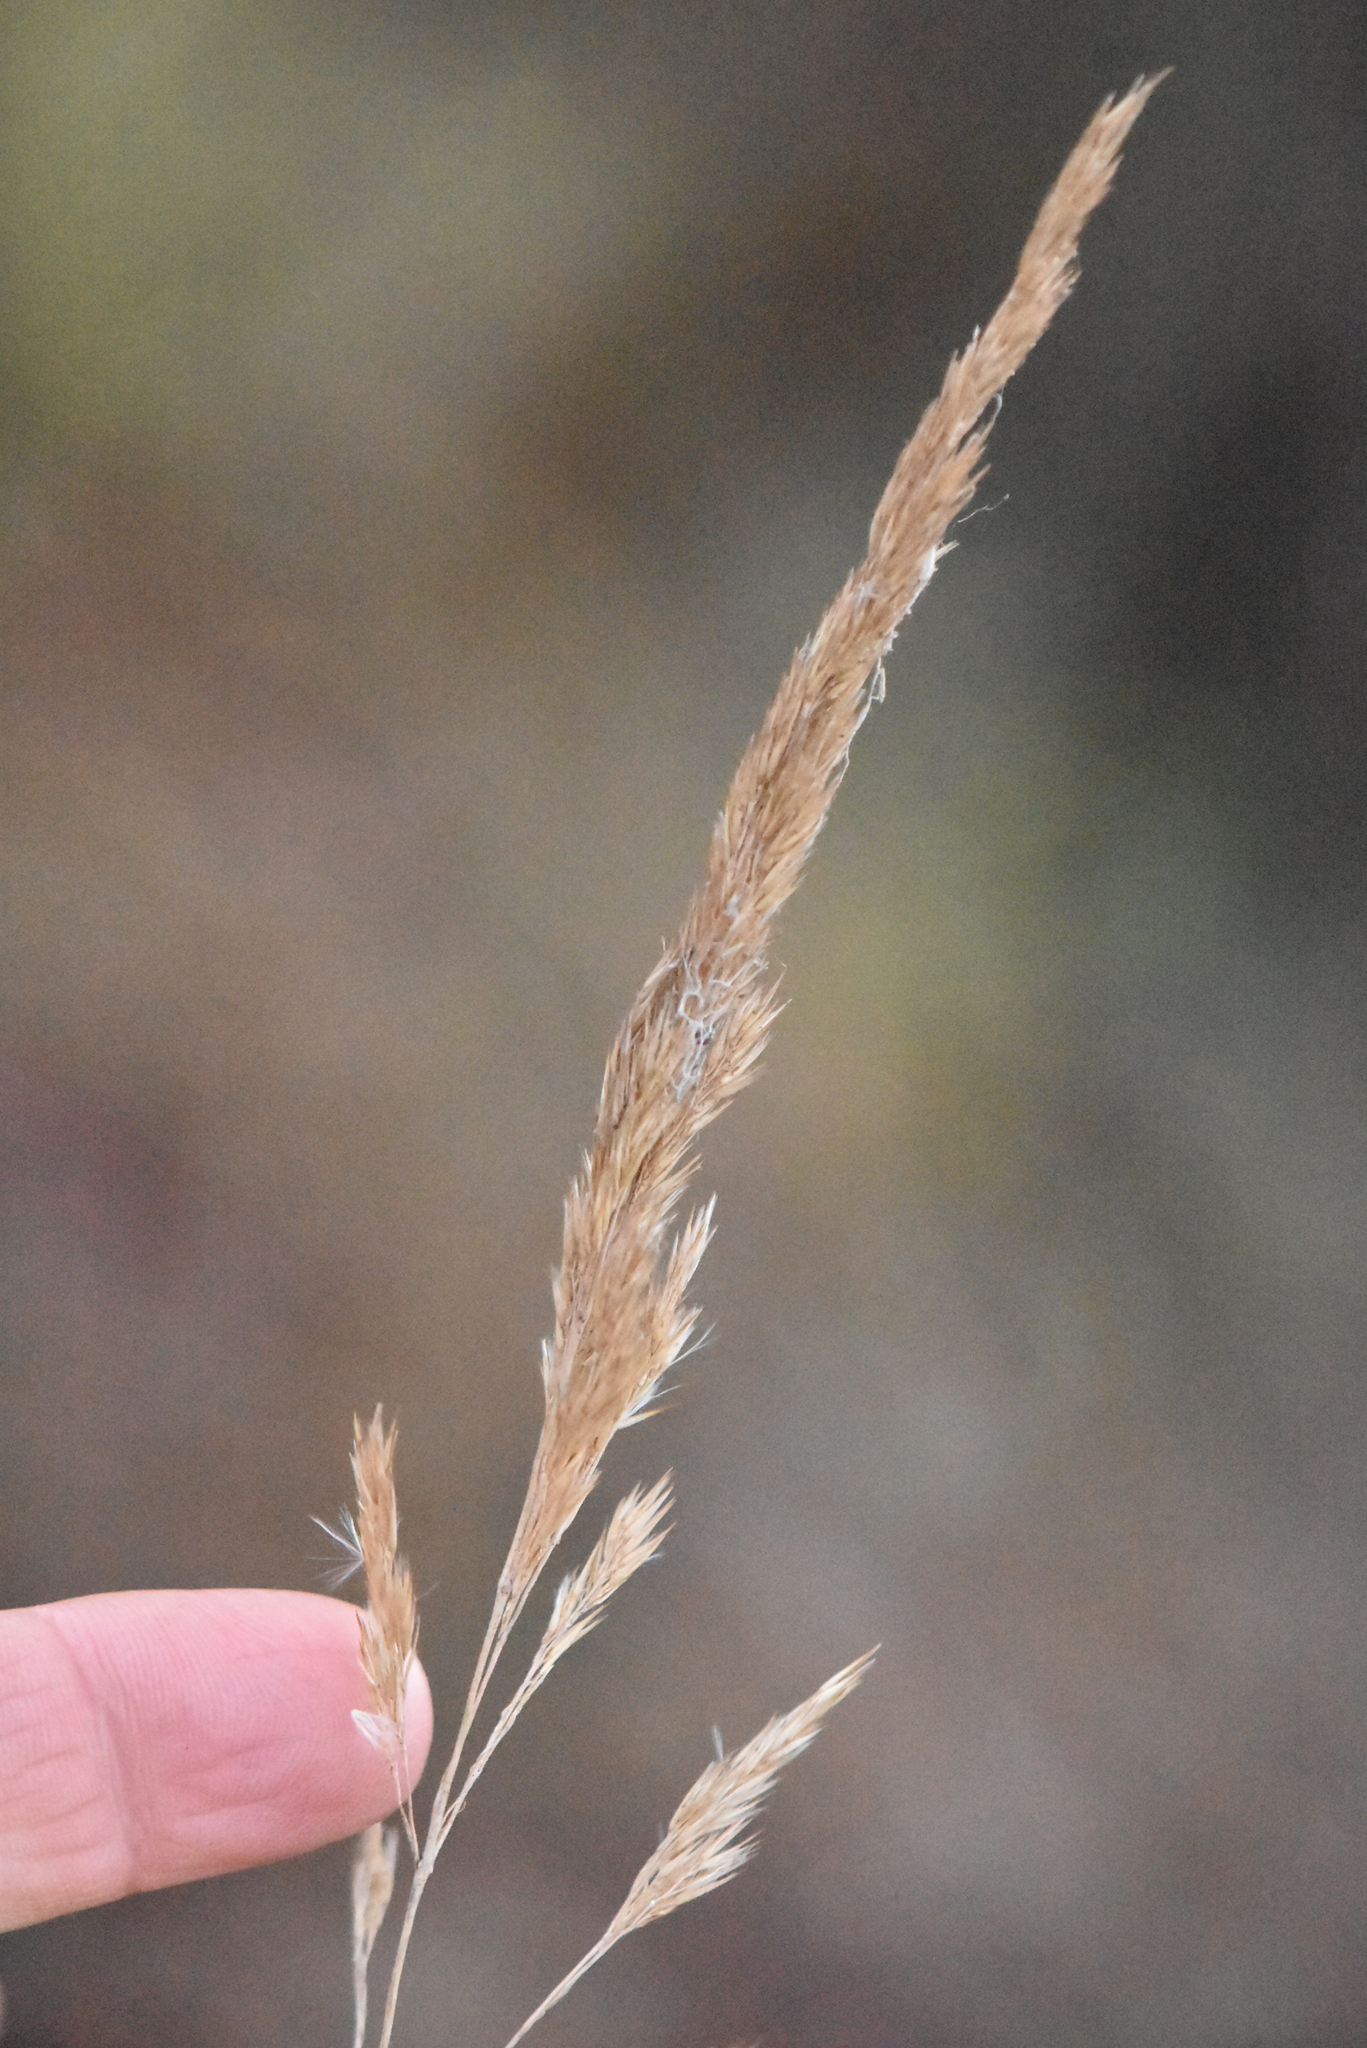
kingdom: Plantae
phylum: Tracheophyta
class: Liliopsida
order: Poales
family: Poaceae
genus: Calamagrostis
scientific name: Calamagrostis epigejos
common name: Wood small-reed
